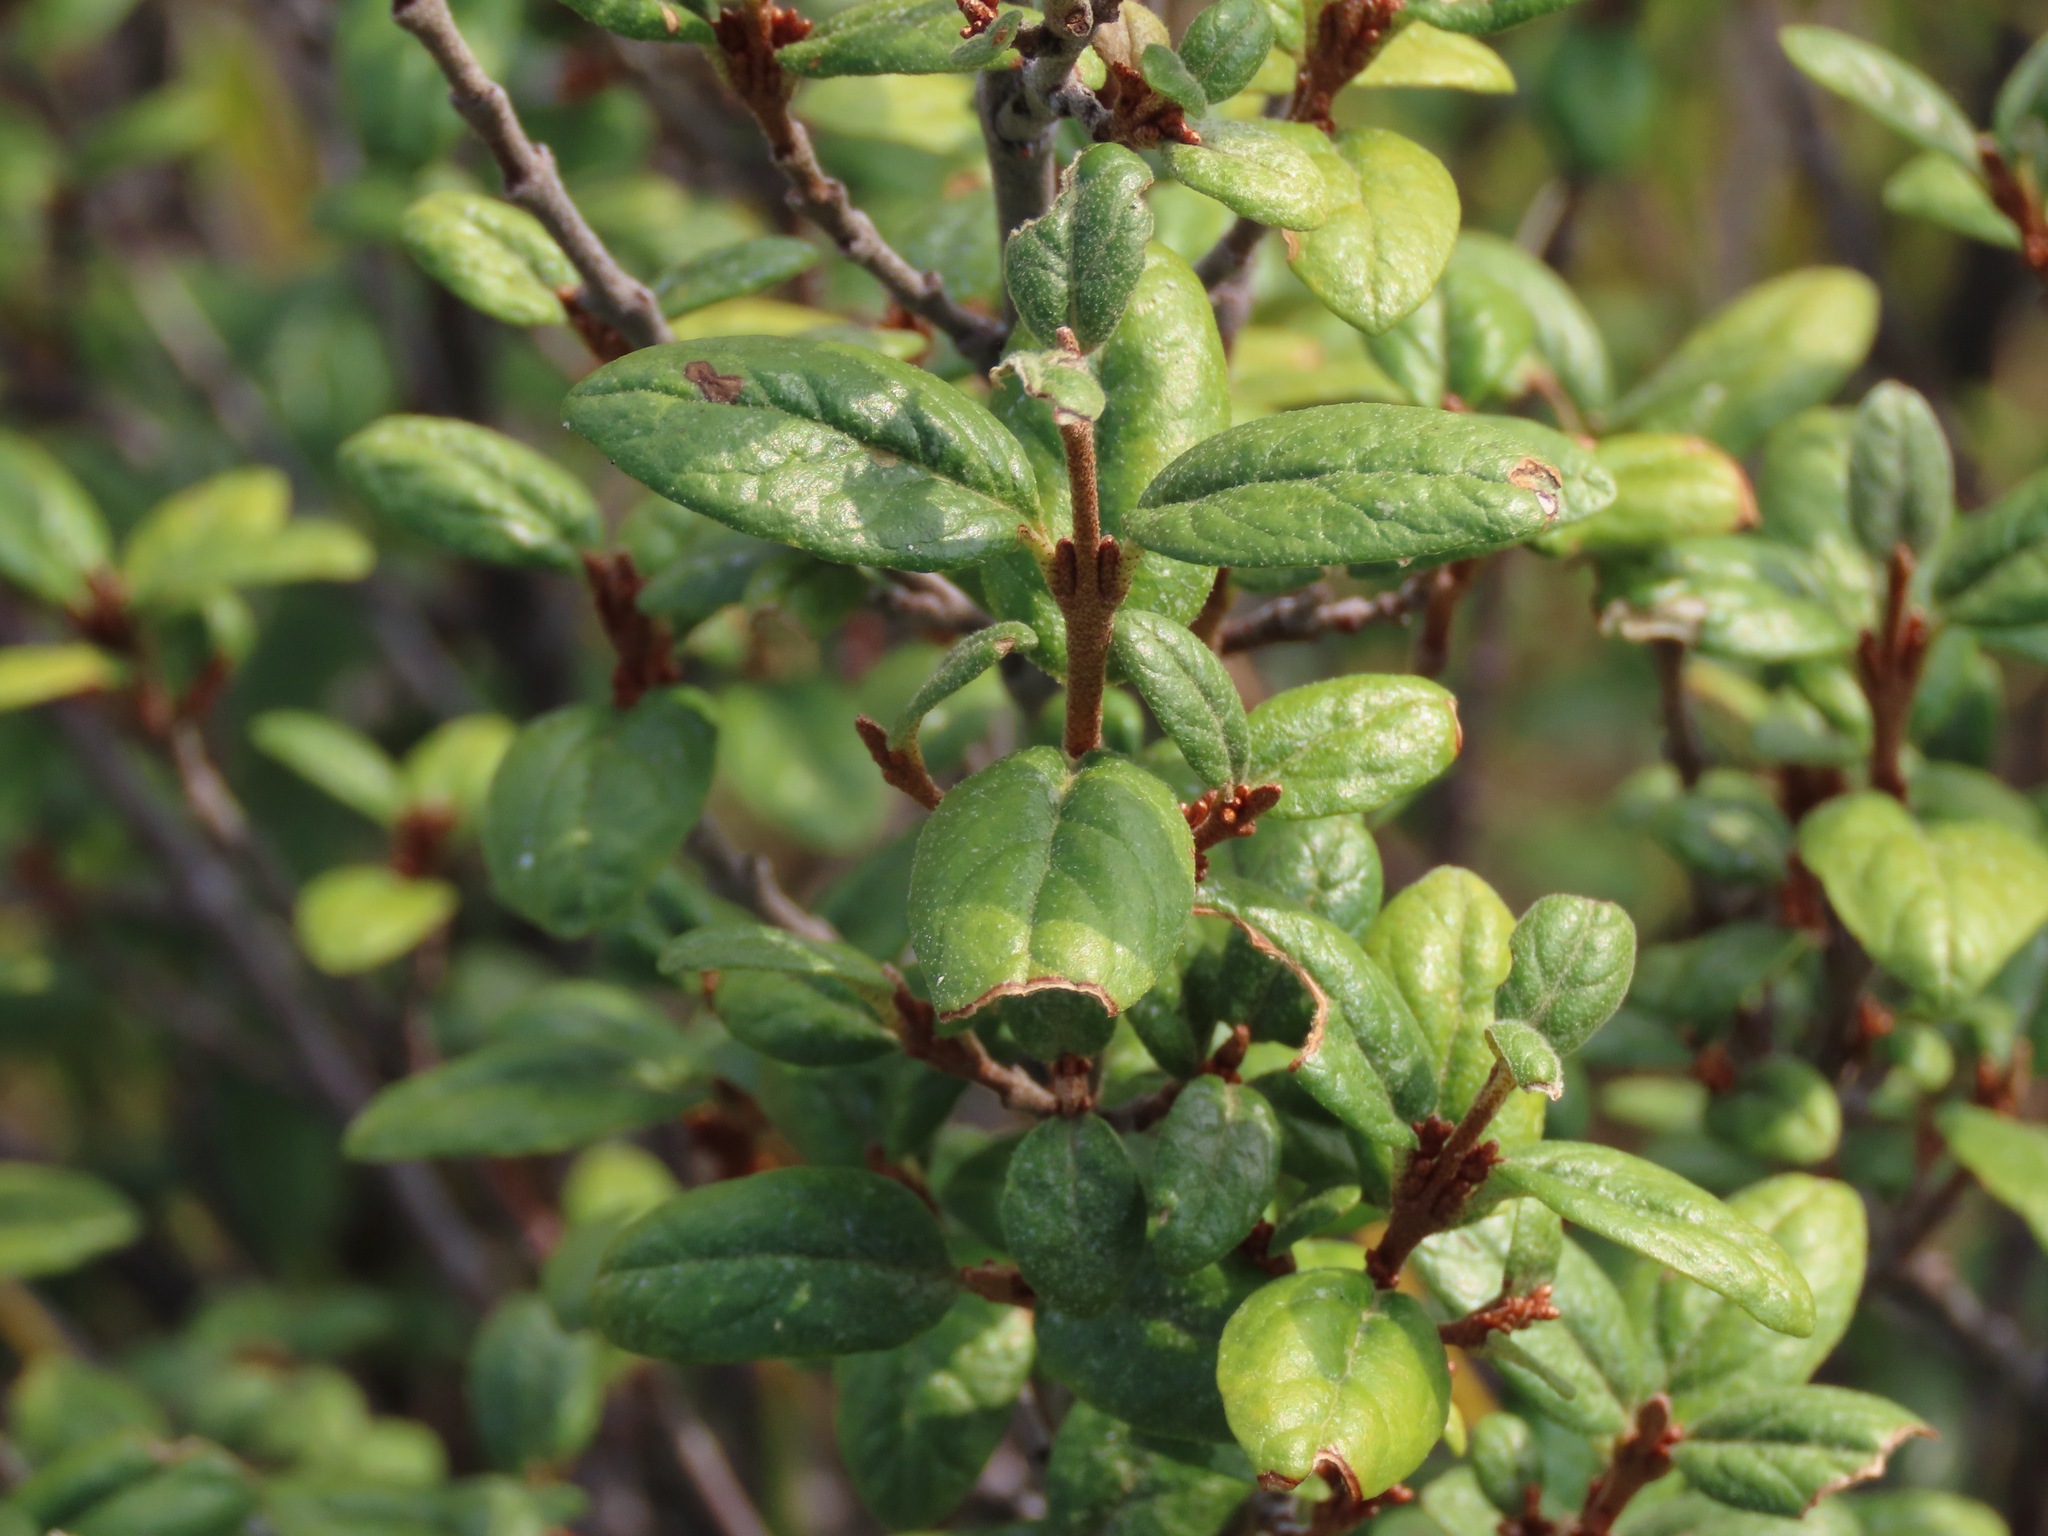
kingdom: Plantae
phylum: Tracheophyta
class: Magnoliopsida
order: Rosales
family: Elaeagnaceae
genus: Shepherdia
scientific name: Shepherdia canadensis
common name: Soapberry
